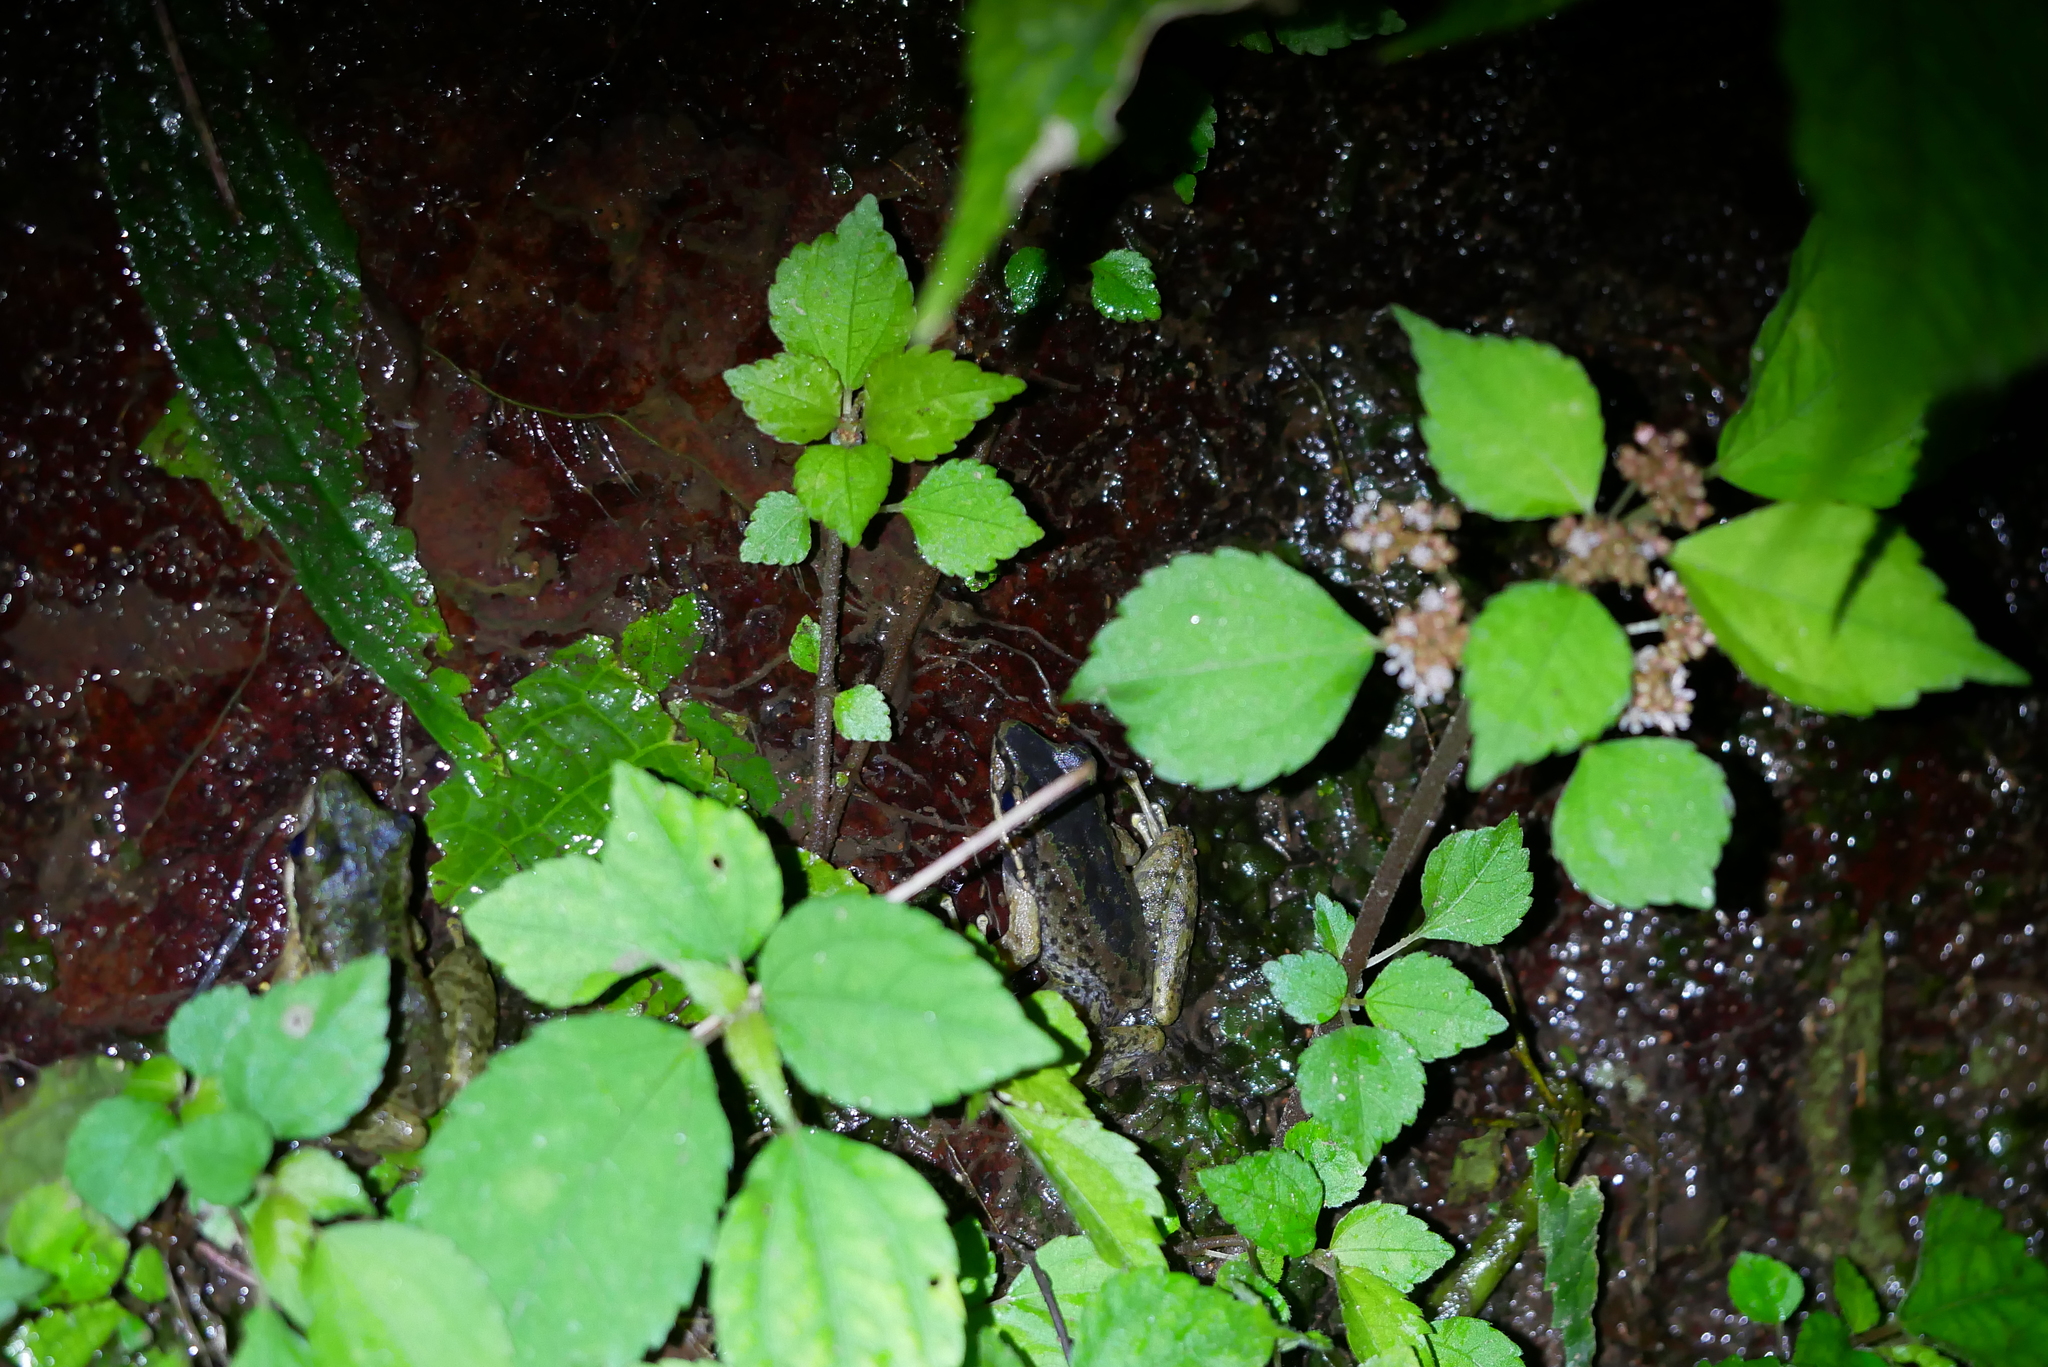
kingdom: Animalia
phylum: Chordata
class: Amphibia
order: Anura
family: Ranidae
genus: Odorrana
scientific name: Odorrana swinhoana
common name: Bangkimtsing frog
